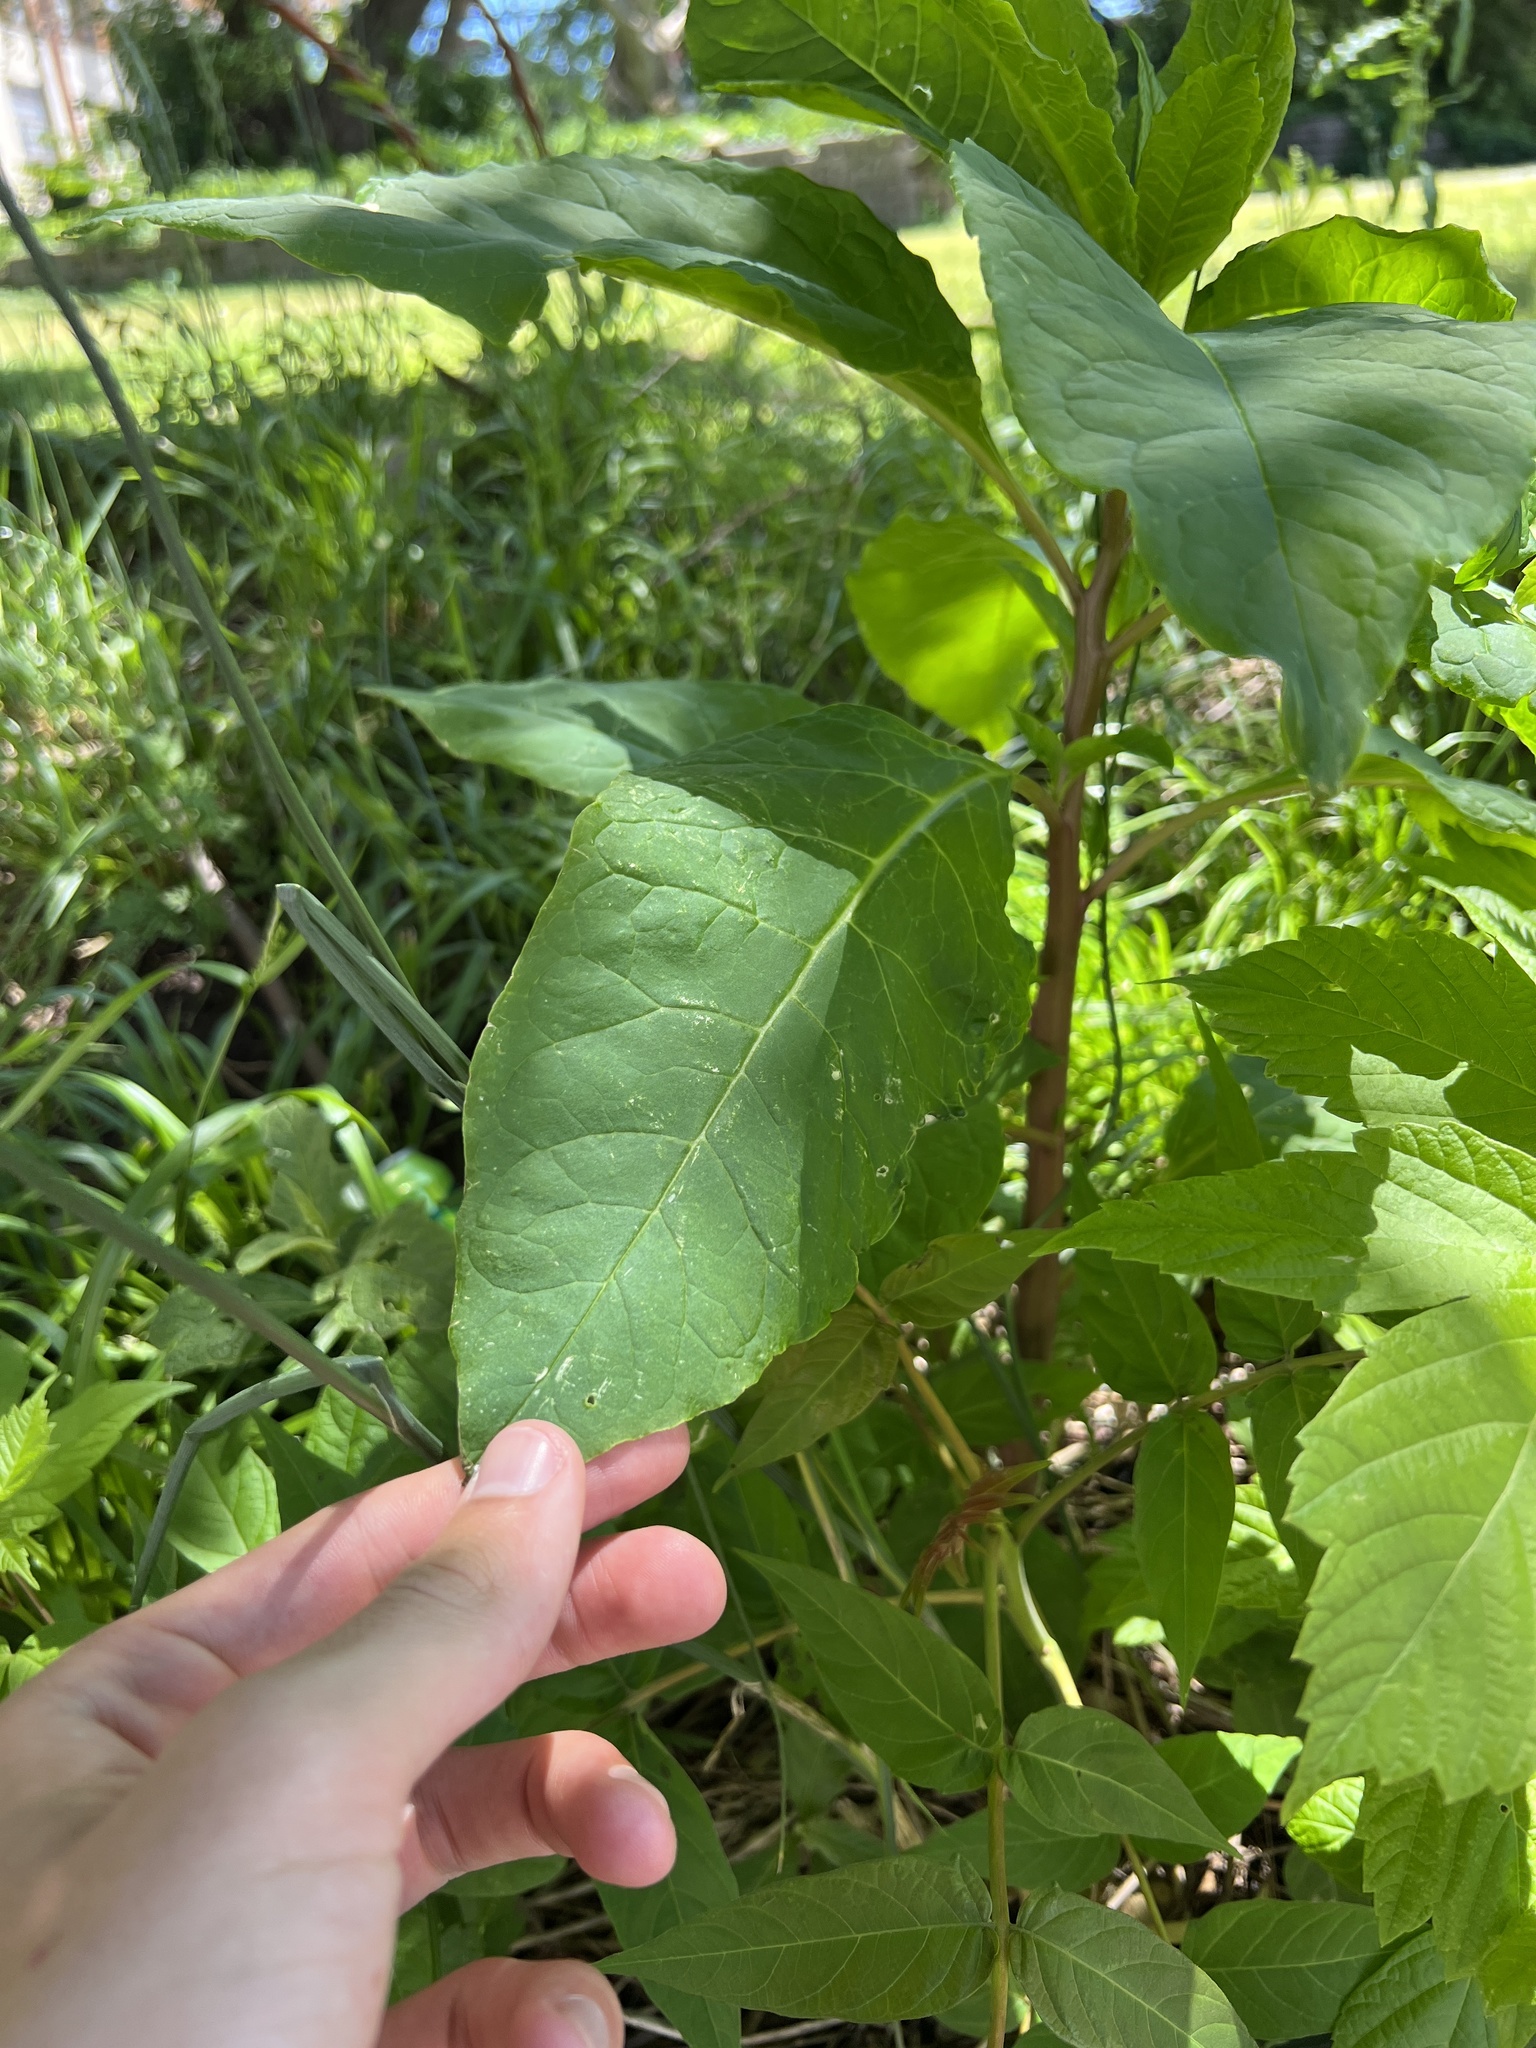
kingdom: Plantae
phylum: Tracheophyta
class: Magnoliopsida
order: Caryophyllales
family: Phytolaccaceae
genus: Phytolacca
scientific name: Phytolacca americana
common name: American pokeweed
